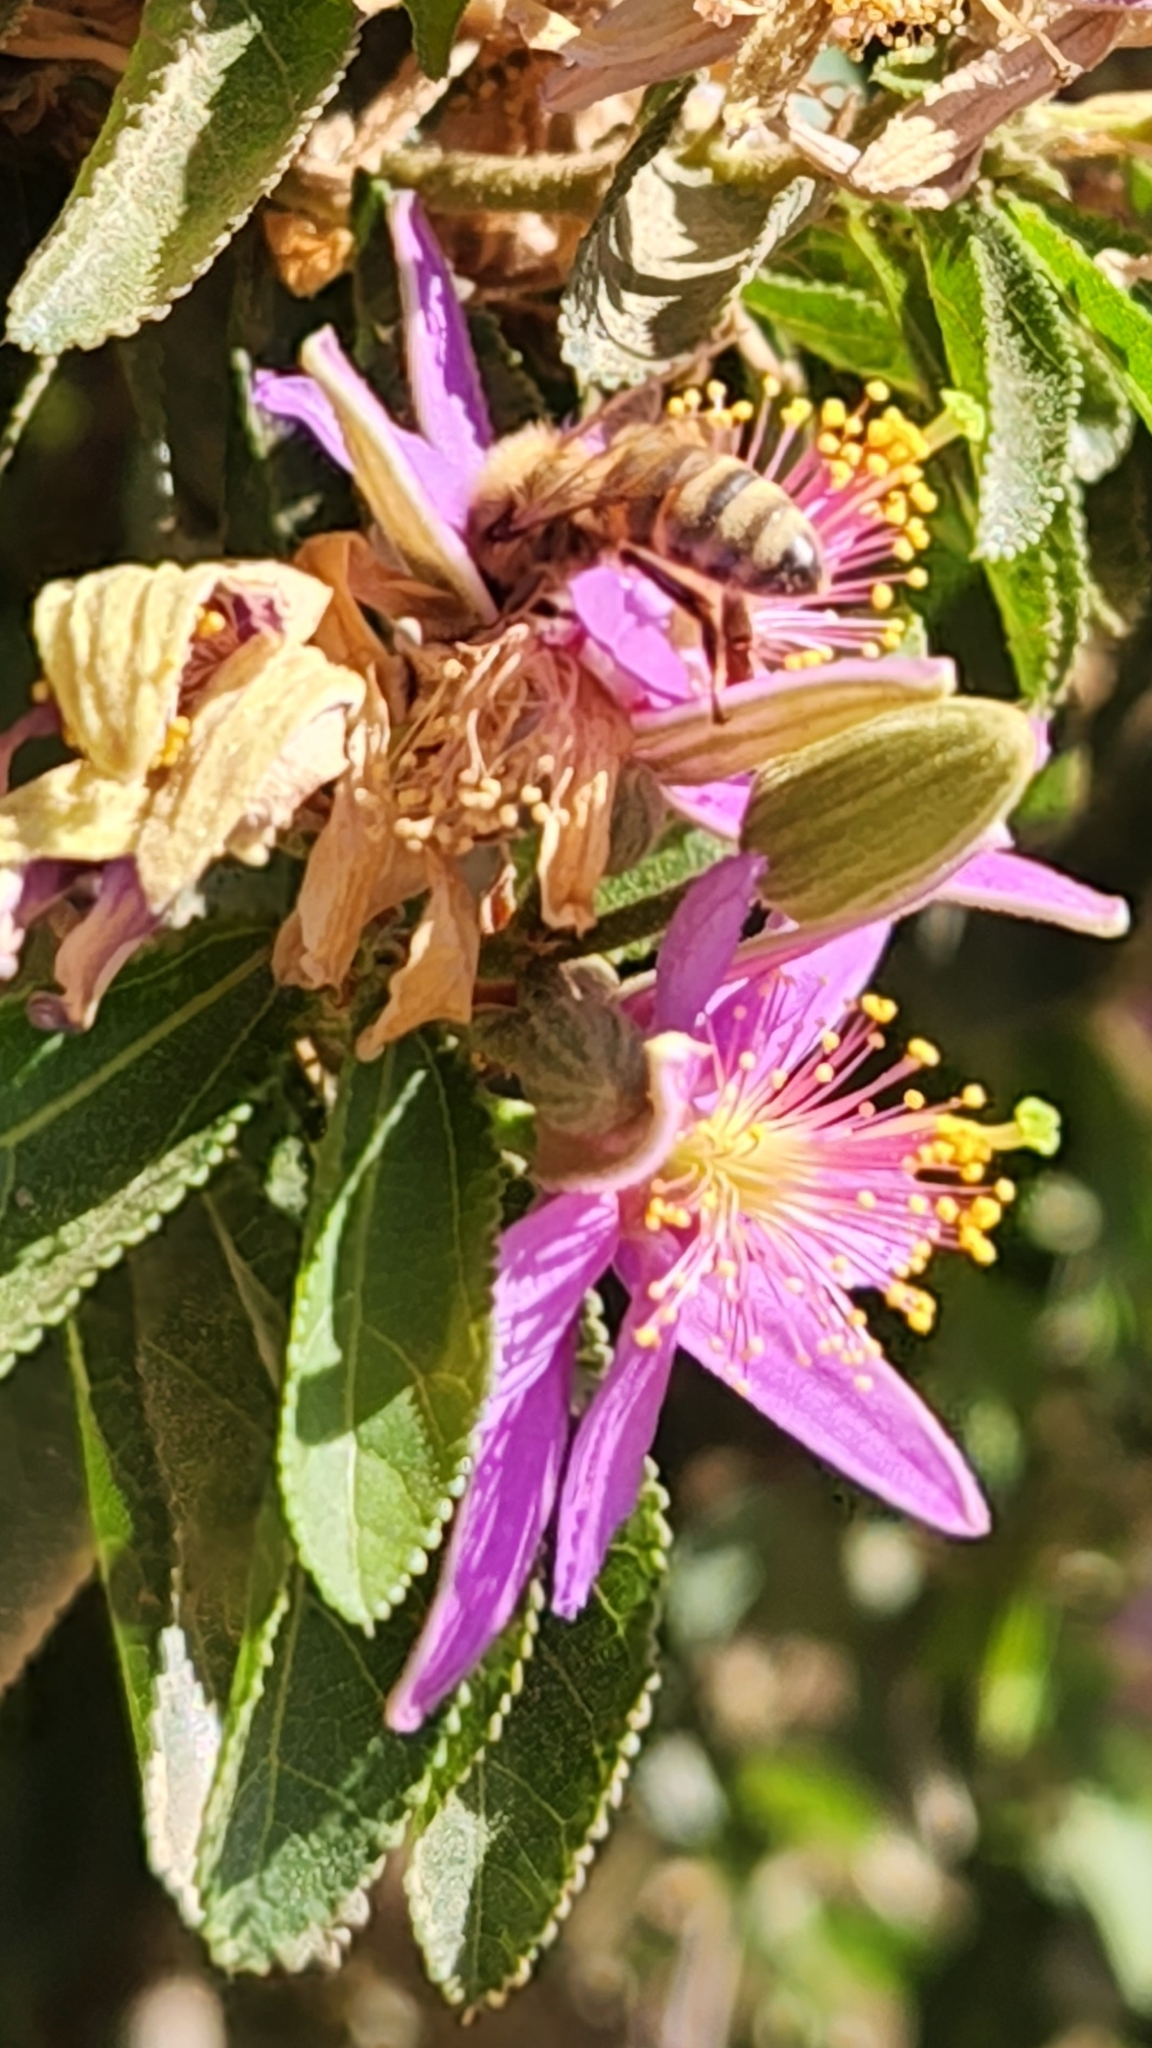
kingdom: Animalia
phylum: Arthropoda
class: Insecta
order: Hymenoptera
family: Apidae
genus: Apis
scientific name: Apis mellifera
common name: Honey bee
